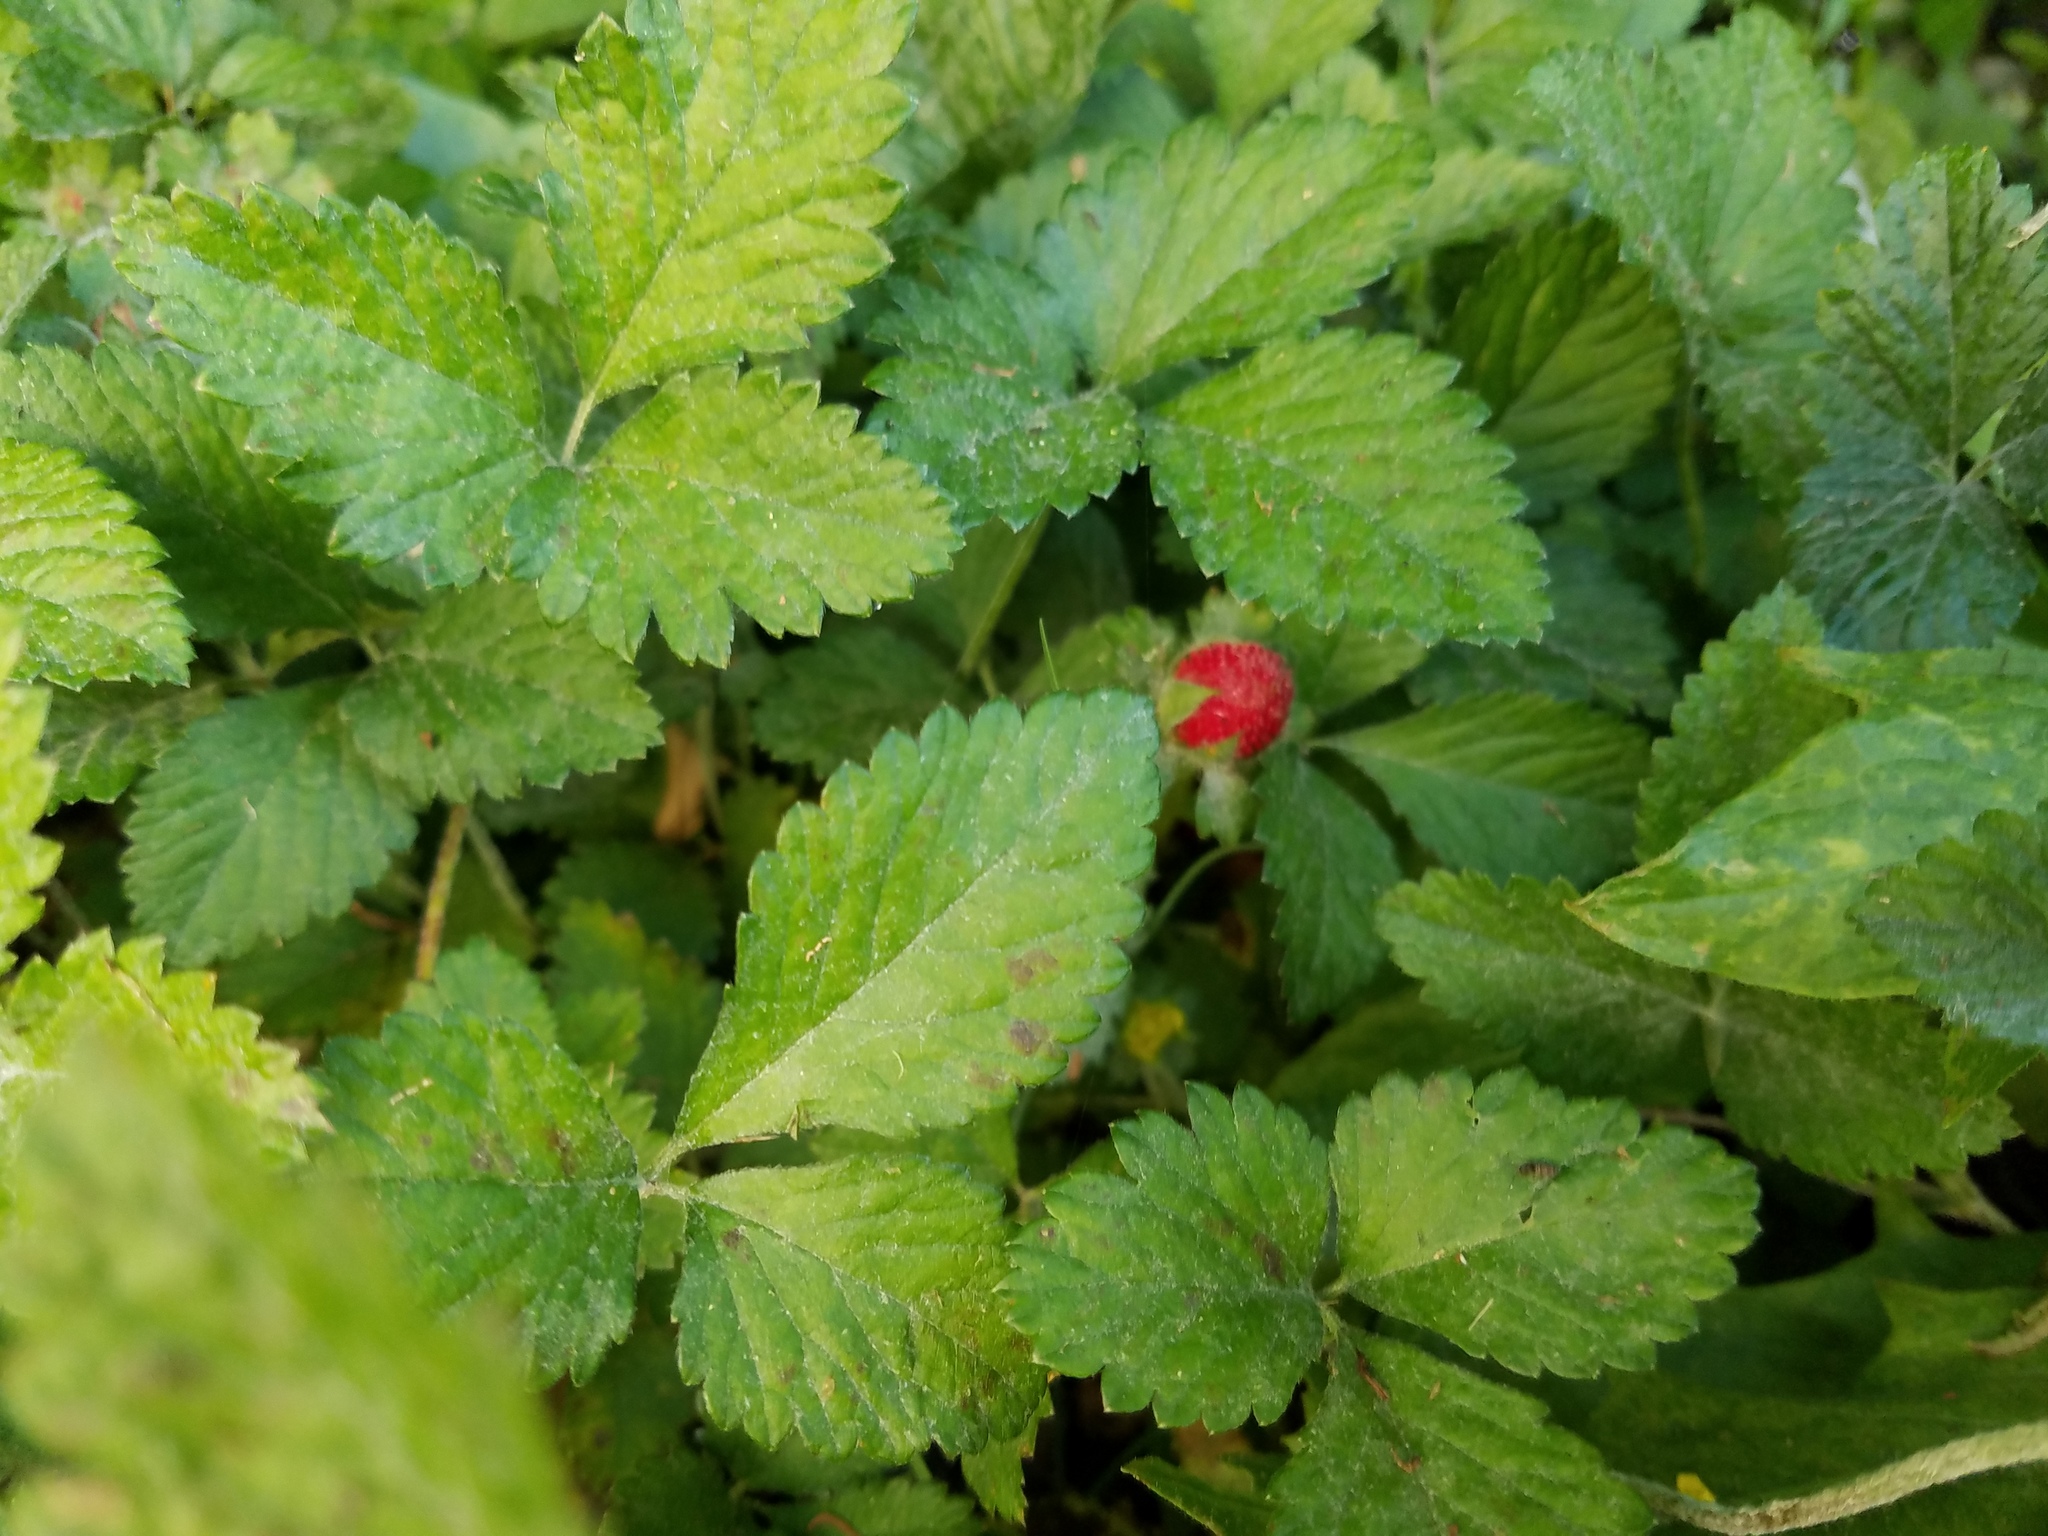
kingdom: Plantae
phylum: Tracheophyta
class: Magnoliopsida
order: Rosales
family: Rosaceae
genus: Potentilla
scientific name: Potentilla indica
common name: Yellow-flowered strawberry
